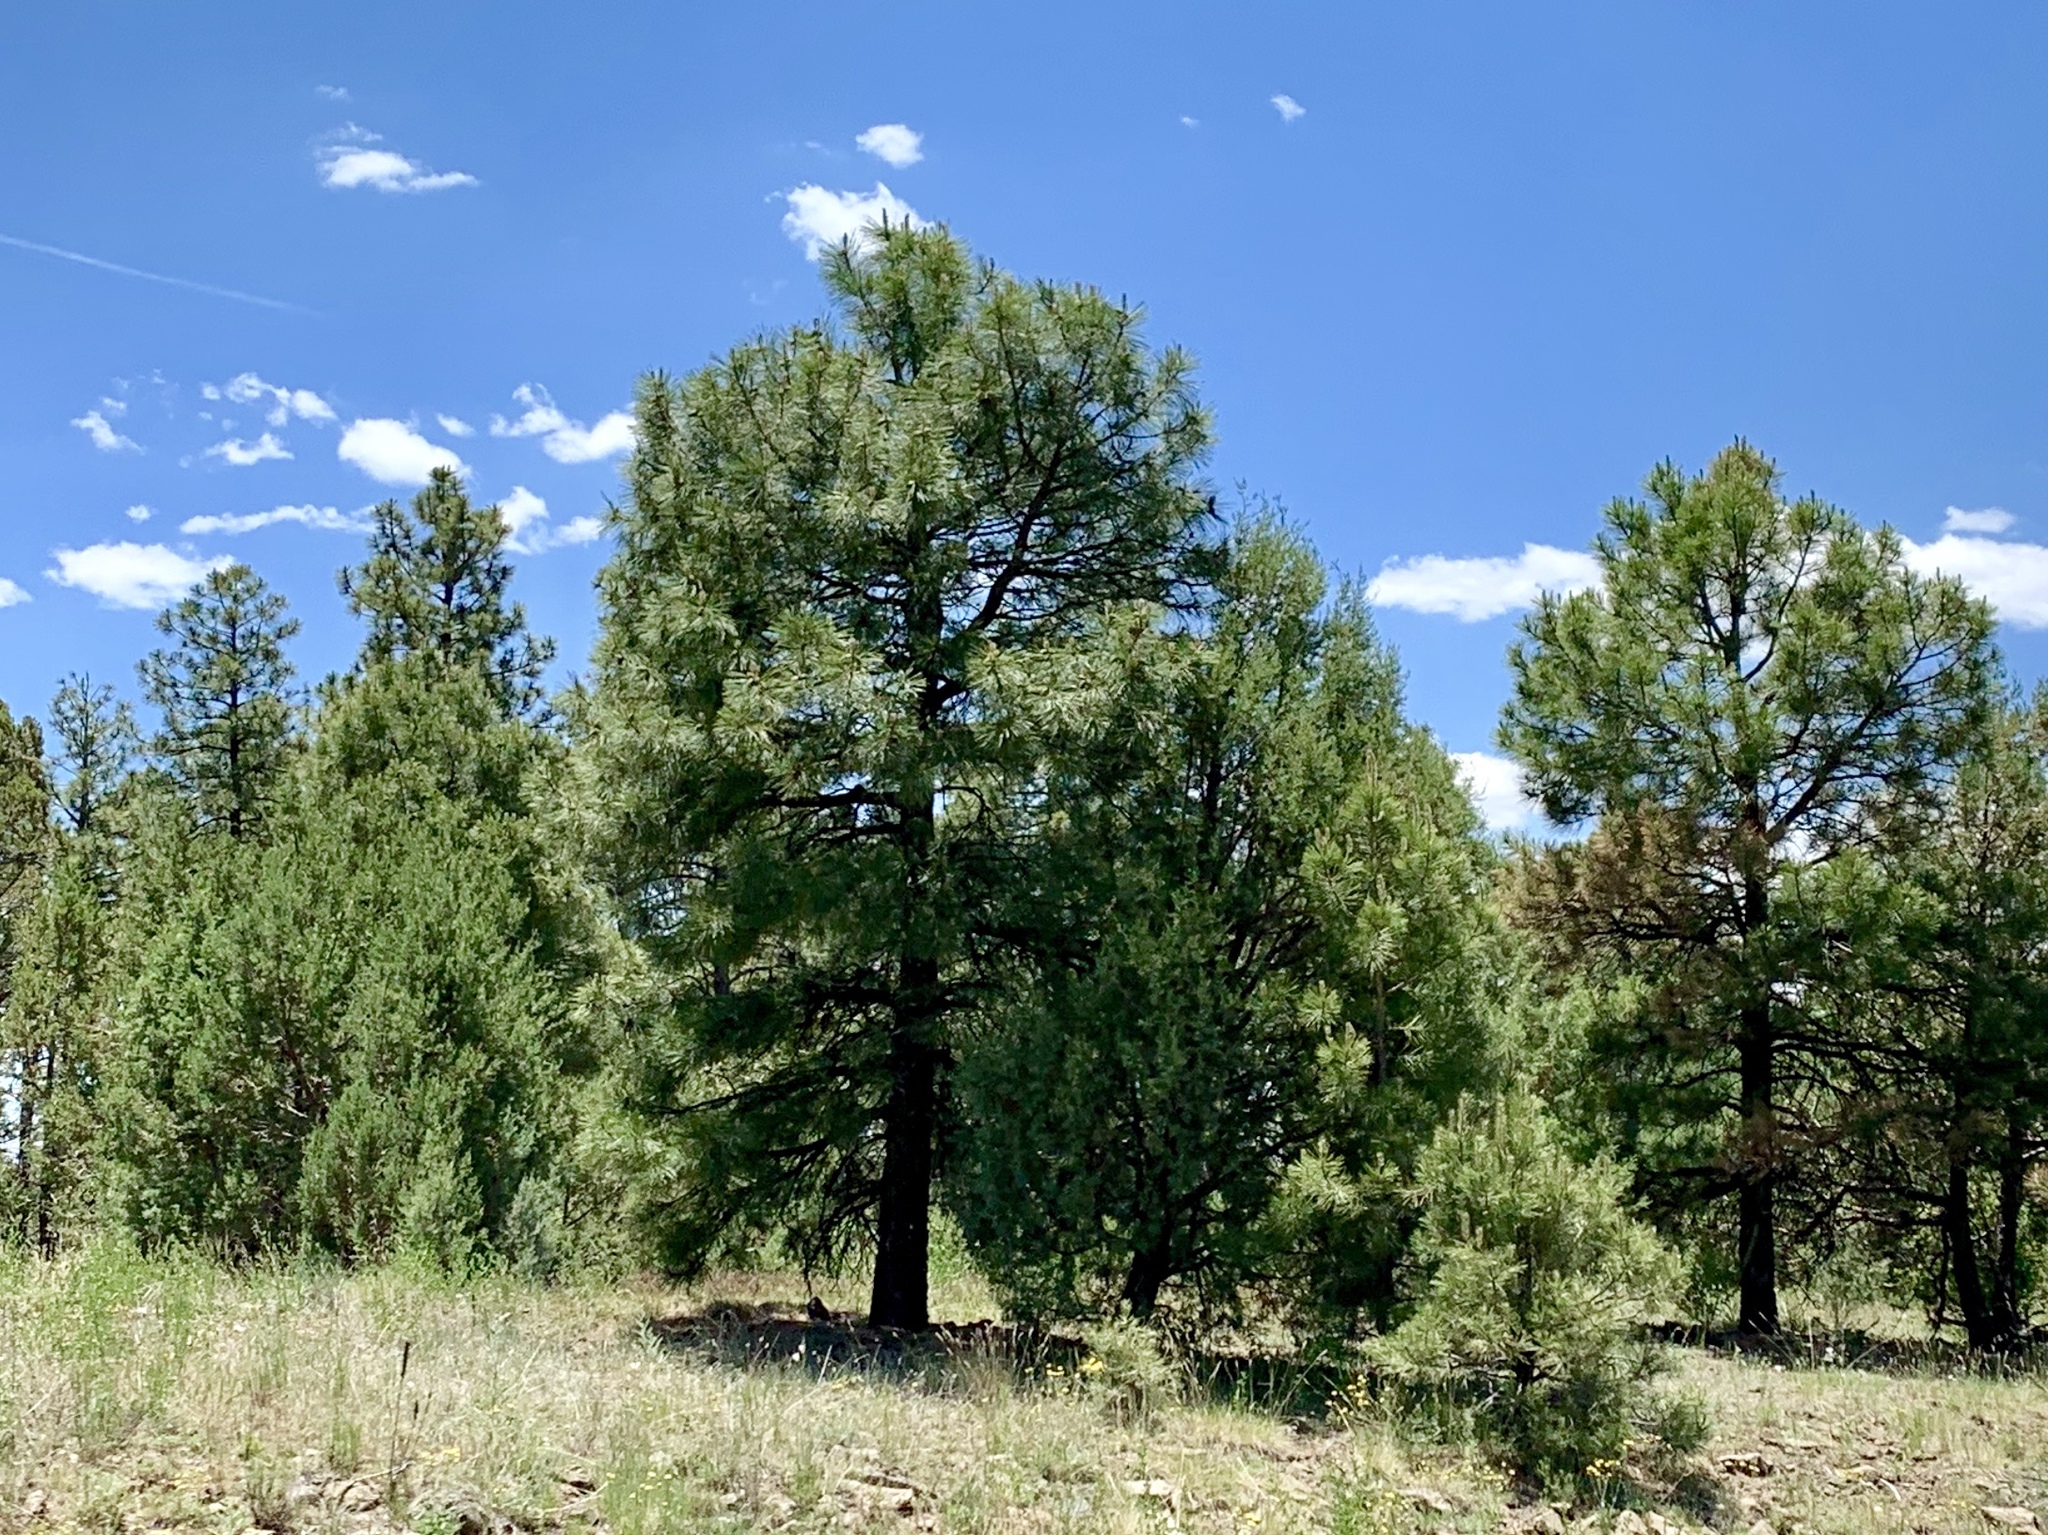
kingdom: Plantae
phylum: Tracheophyta
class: Pinopsida
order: Pinales
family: Pinaceae
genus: Pinus
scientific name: Pinus ponderosa
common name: Western yellow-pine
